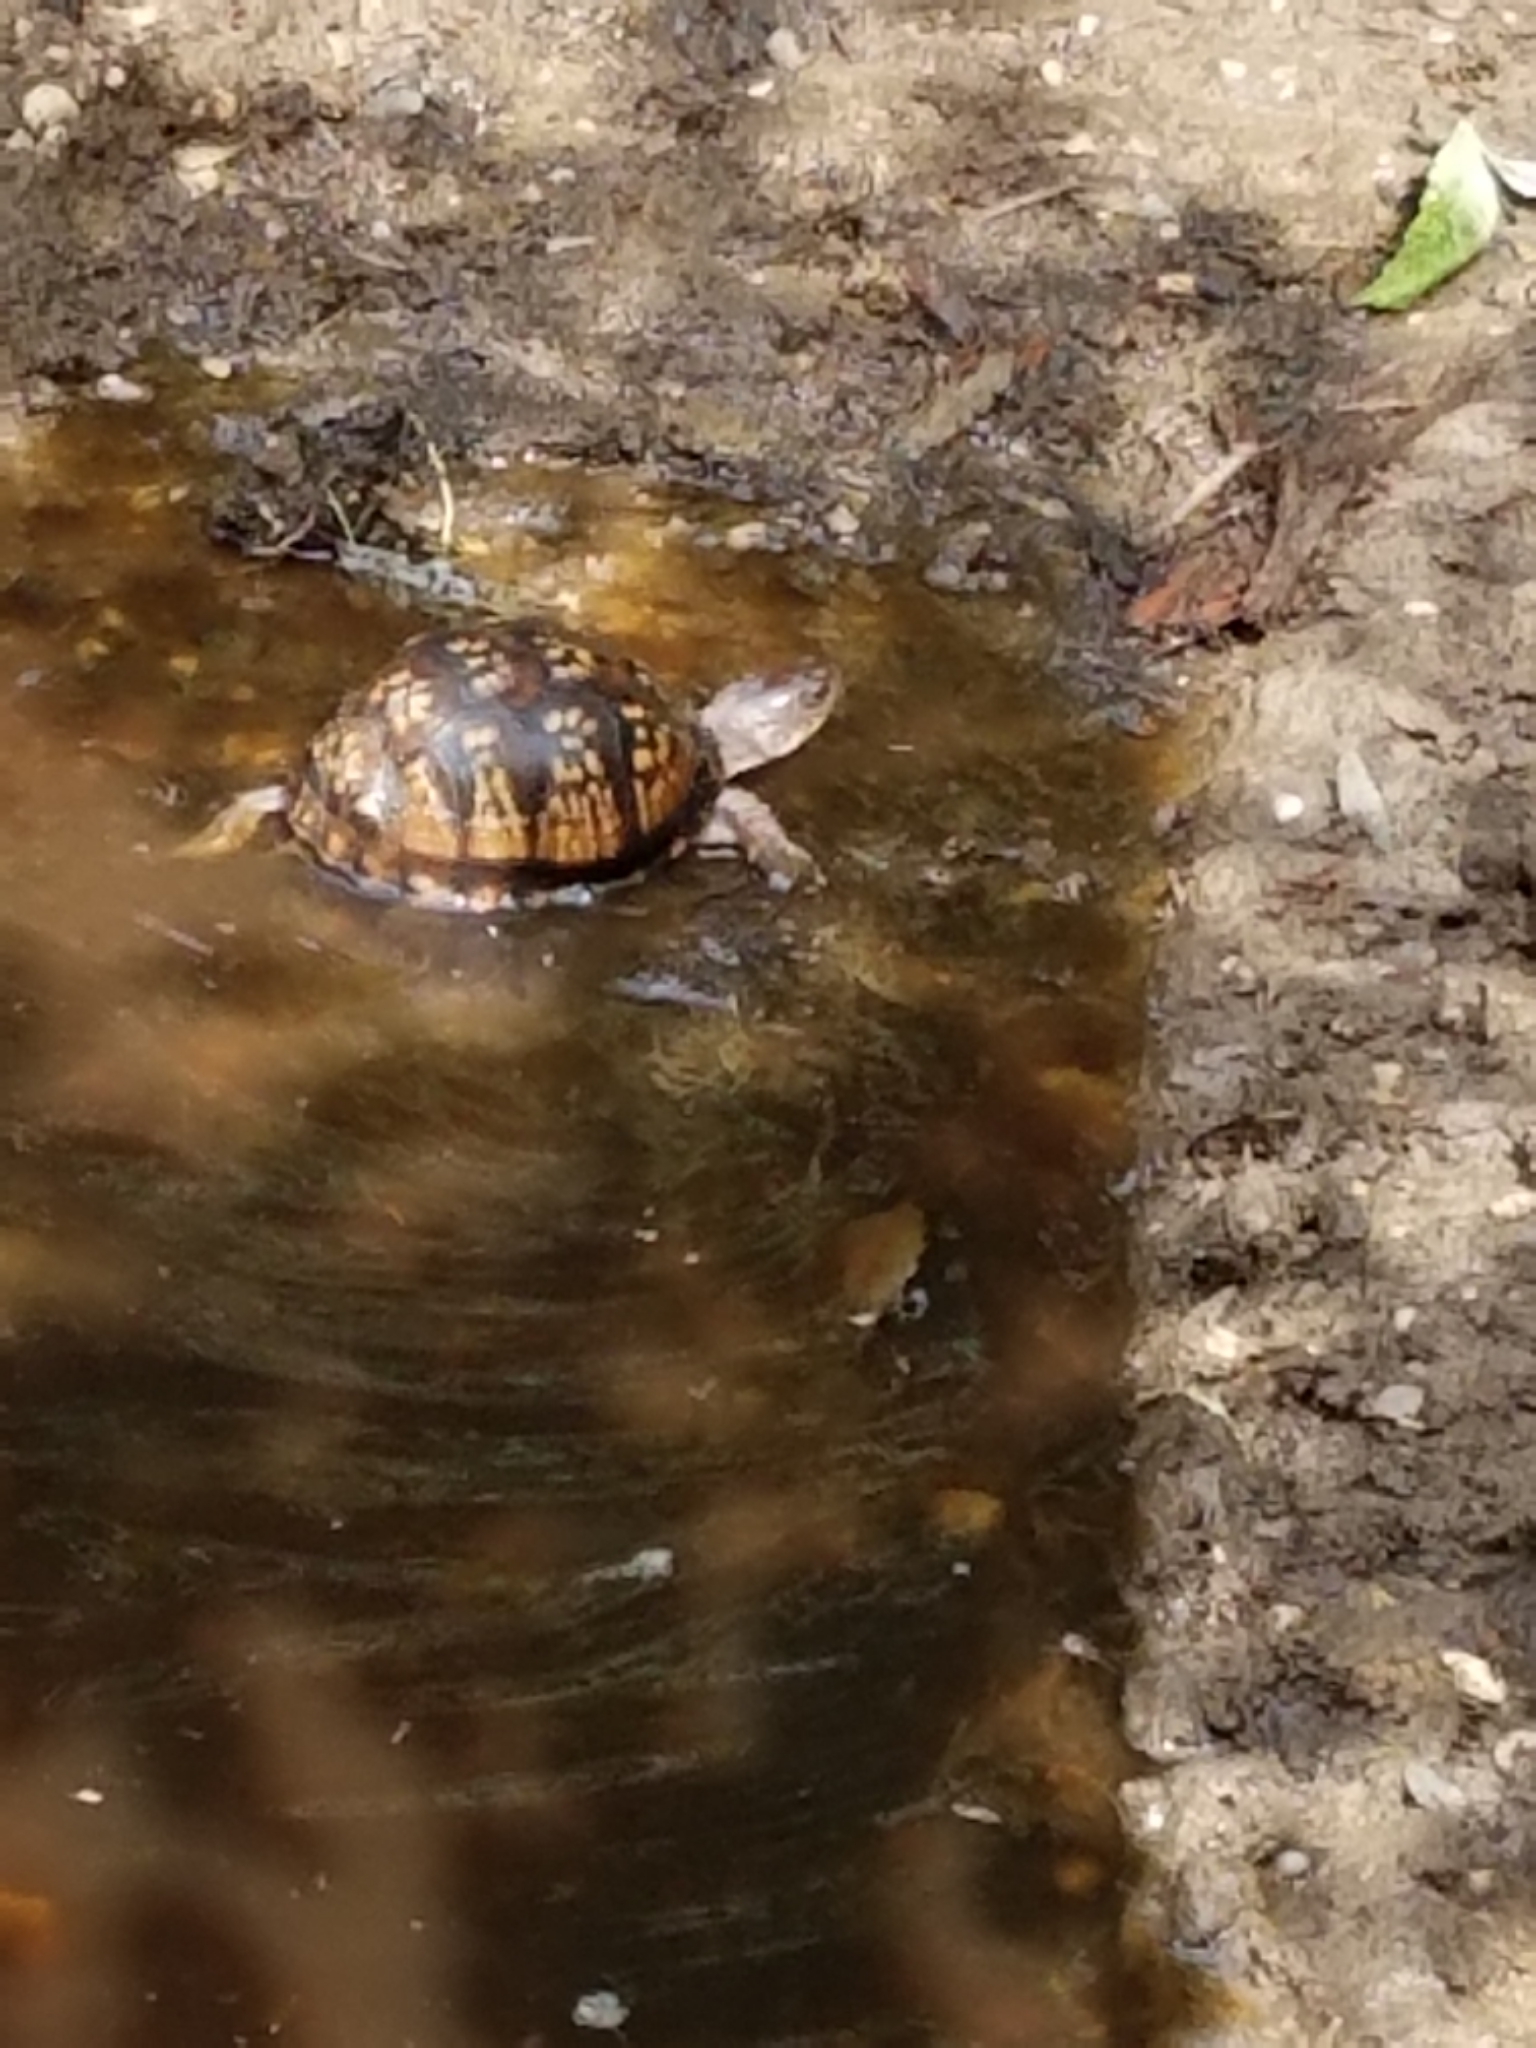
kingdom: Animalia
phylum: Chordata
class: Testudines
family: Emydidae
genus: Terrapene
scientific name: Terrapene carolina
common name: Common box turtle
